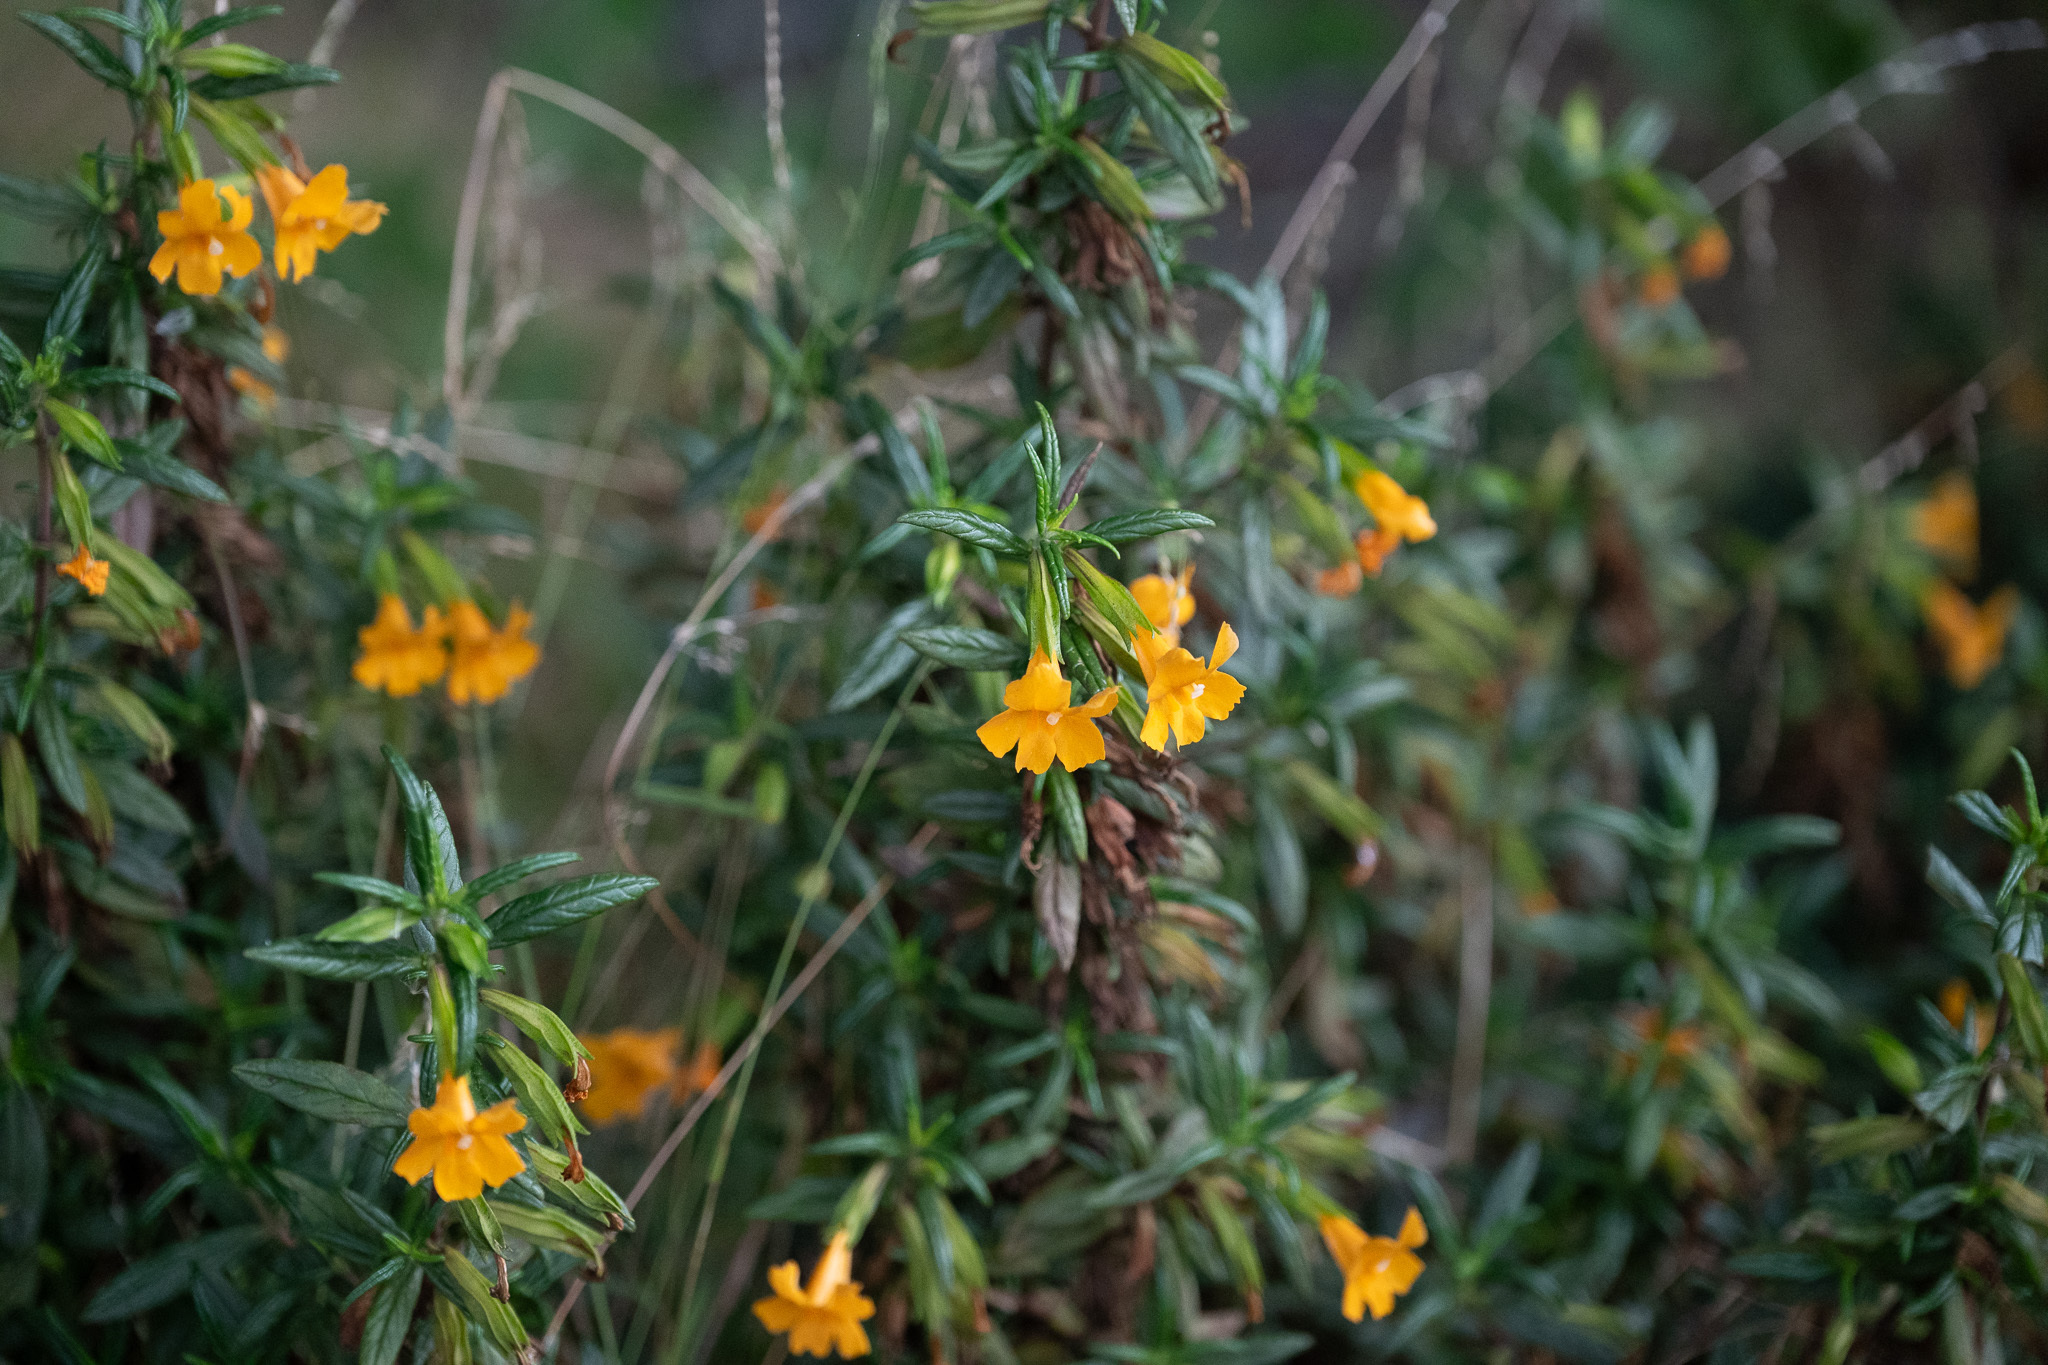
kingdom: Plantae
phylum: Tracheophyta
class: Magnoliopsida
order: Lamiales
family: Phrymaceae
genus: Diplacus
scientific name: Diplacus aurantiacus
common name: Bush monkey-flower
